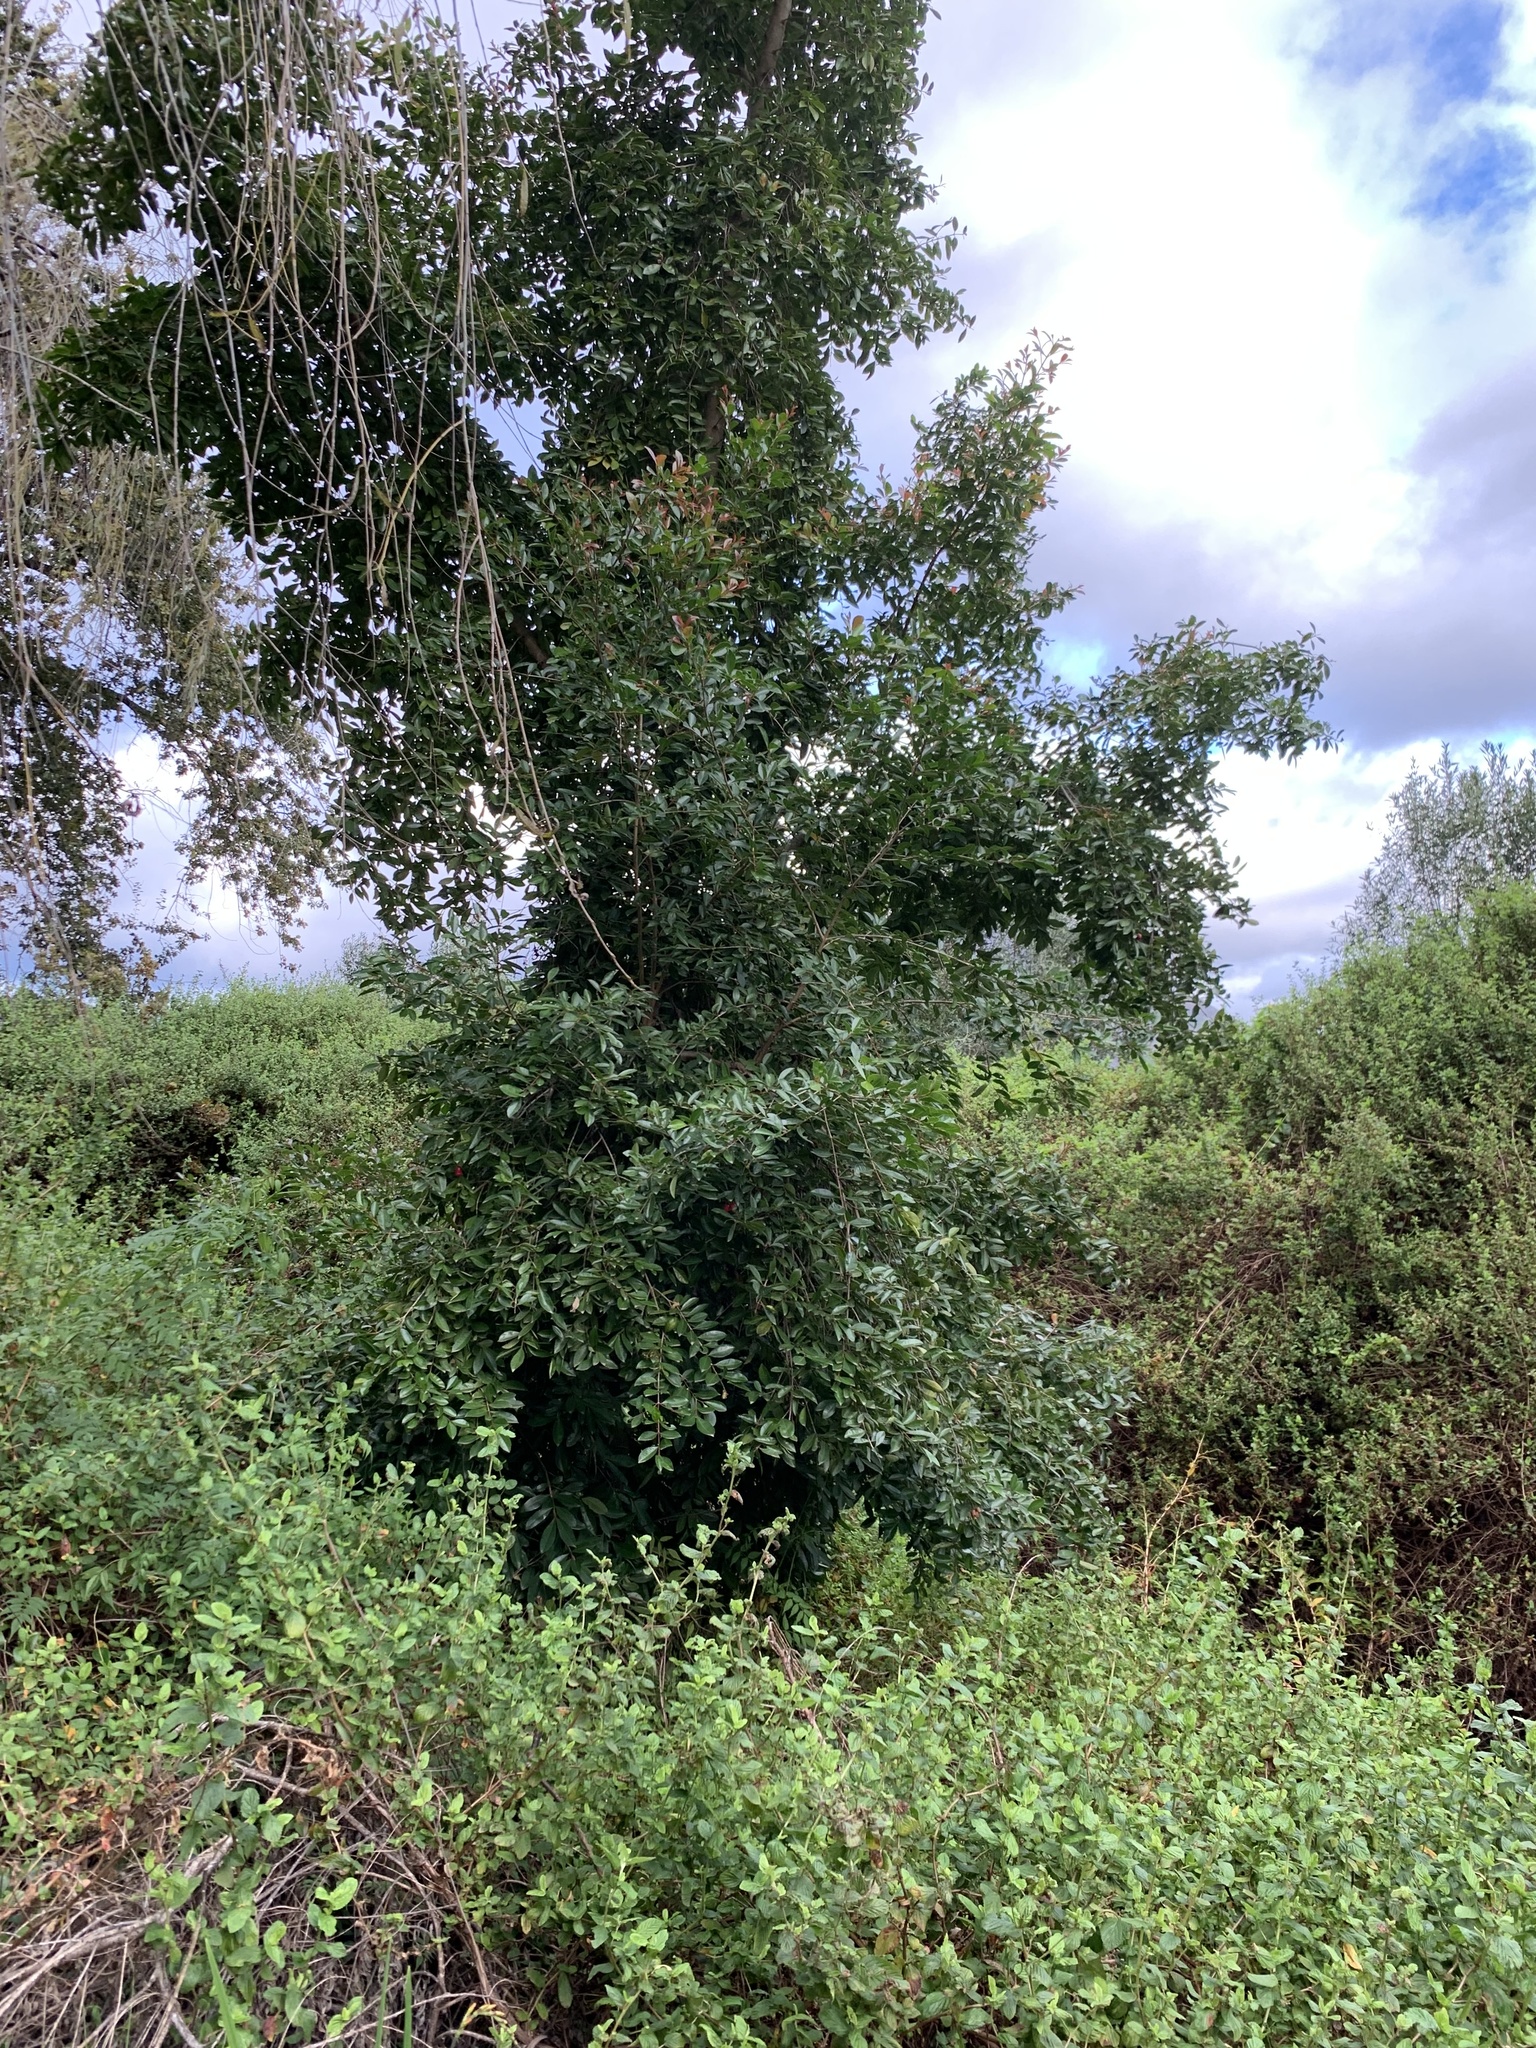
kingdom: Plantae
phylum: Tracheophyta
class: Magnoliopsida
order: Myrtales
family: Myrtaceae
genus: Syzygium
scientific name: Syzygium australe
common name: Australian brush-cherry
